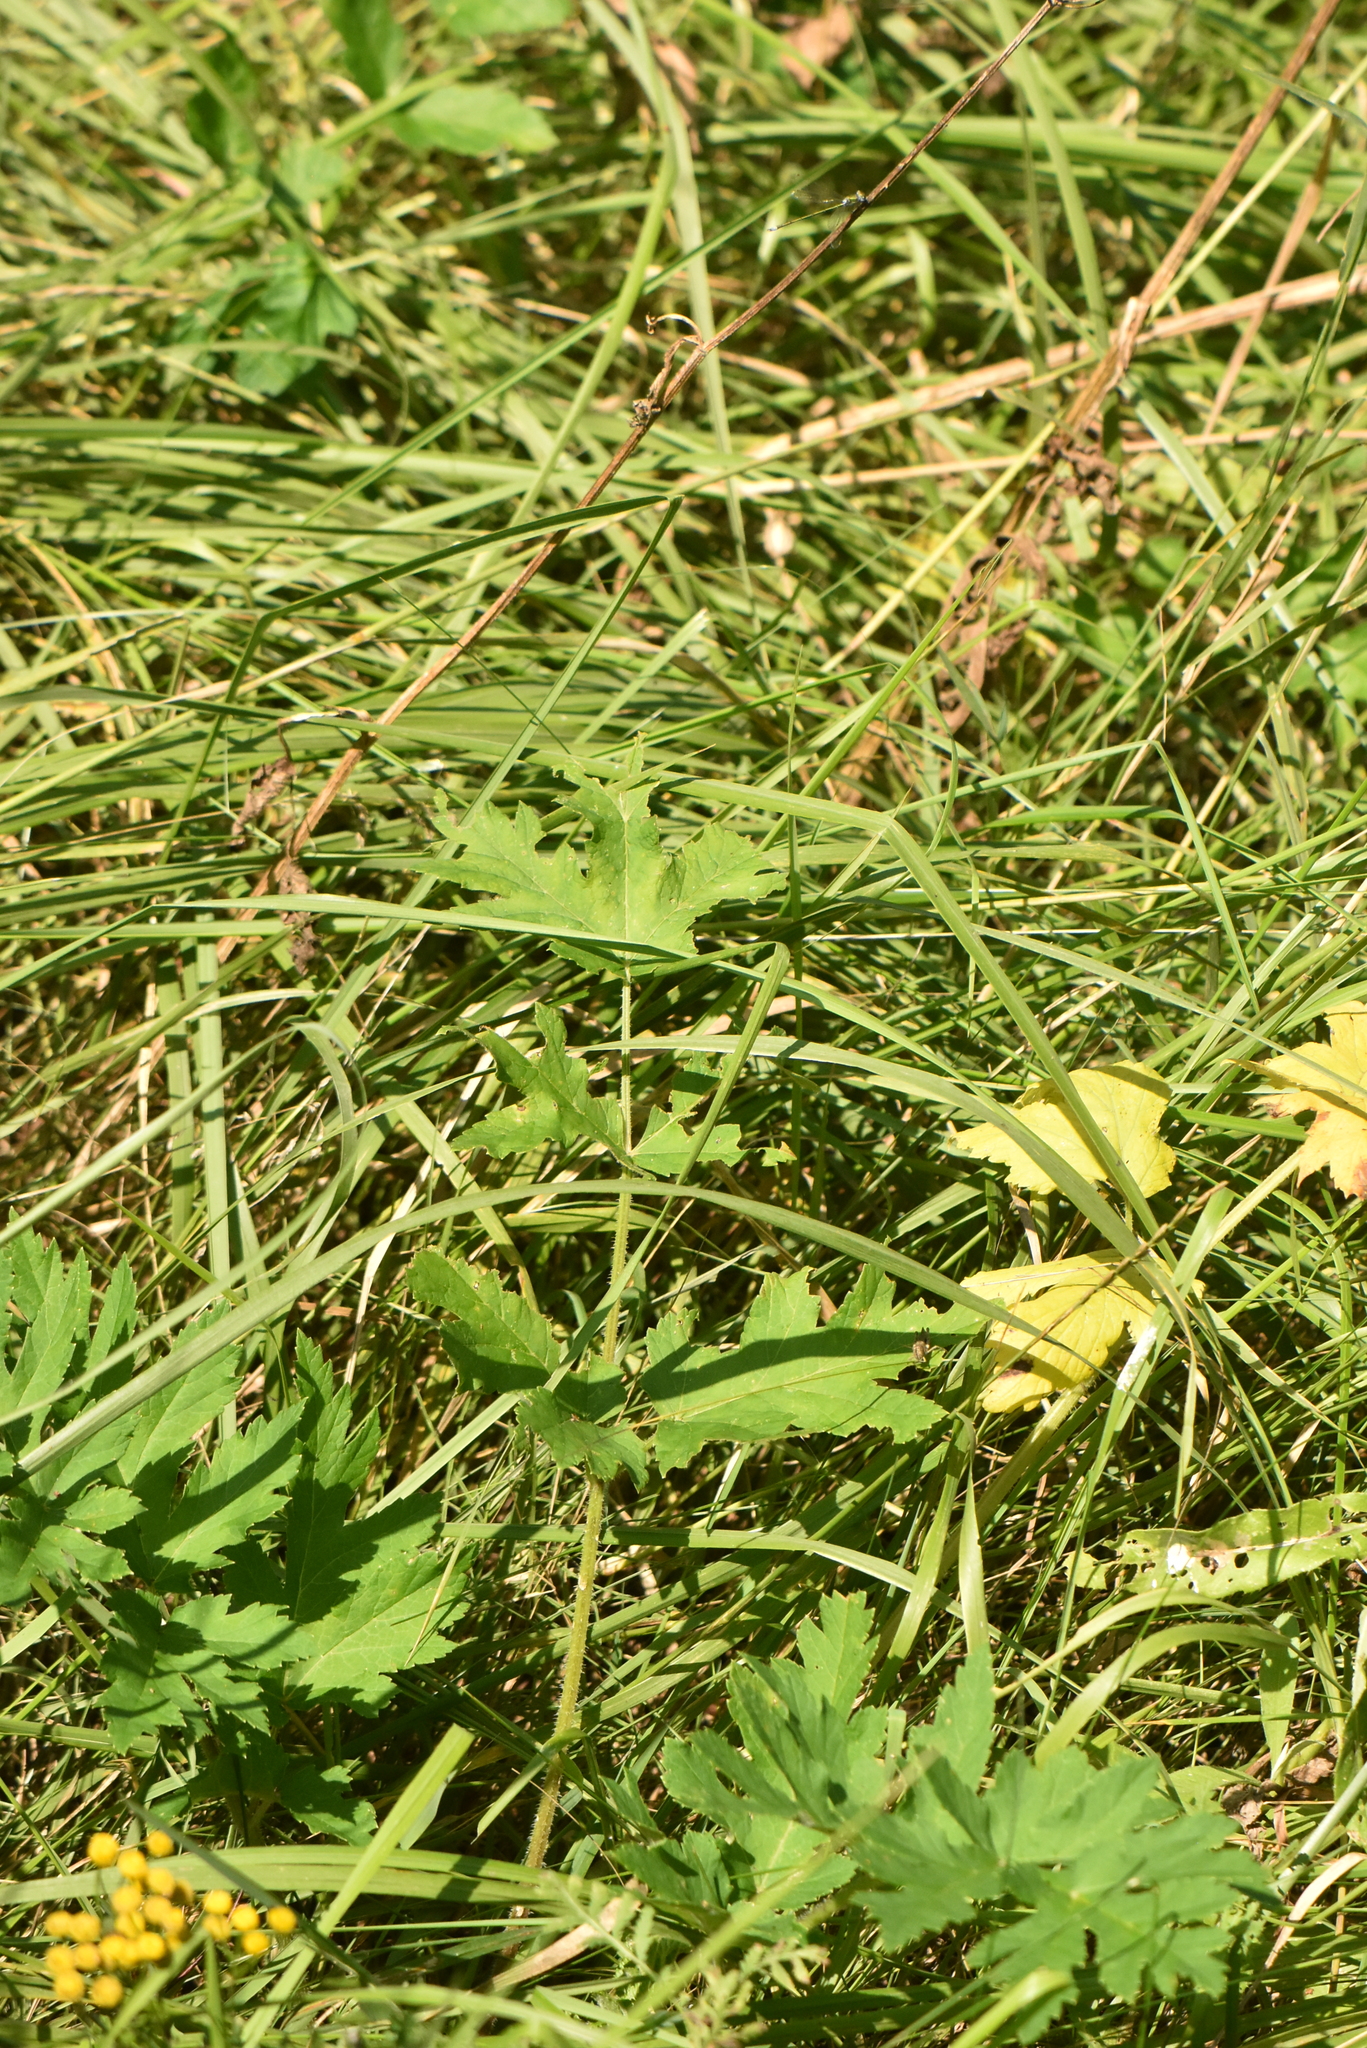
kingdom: Plantae
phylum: Tracheophyta
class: Magnoliopsida
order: Apiales
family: Apiaceae
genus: Heracleum
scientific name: Heracleum sphondylium
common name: Hogweed
